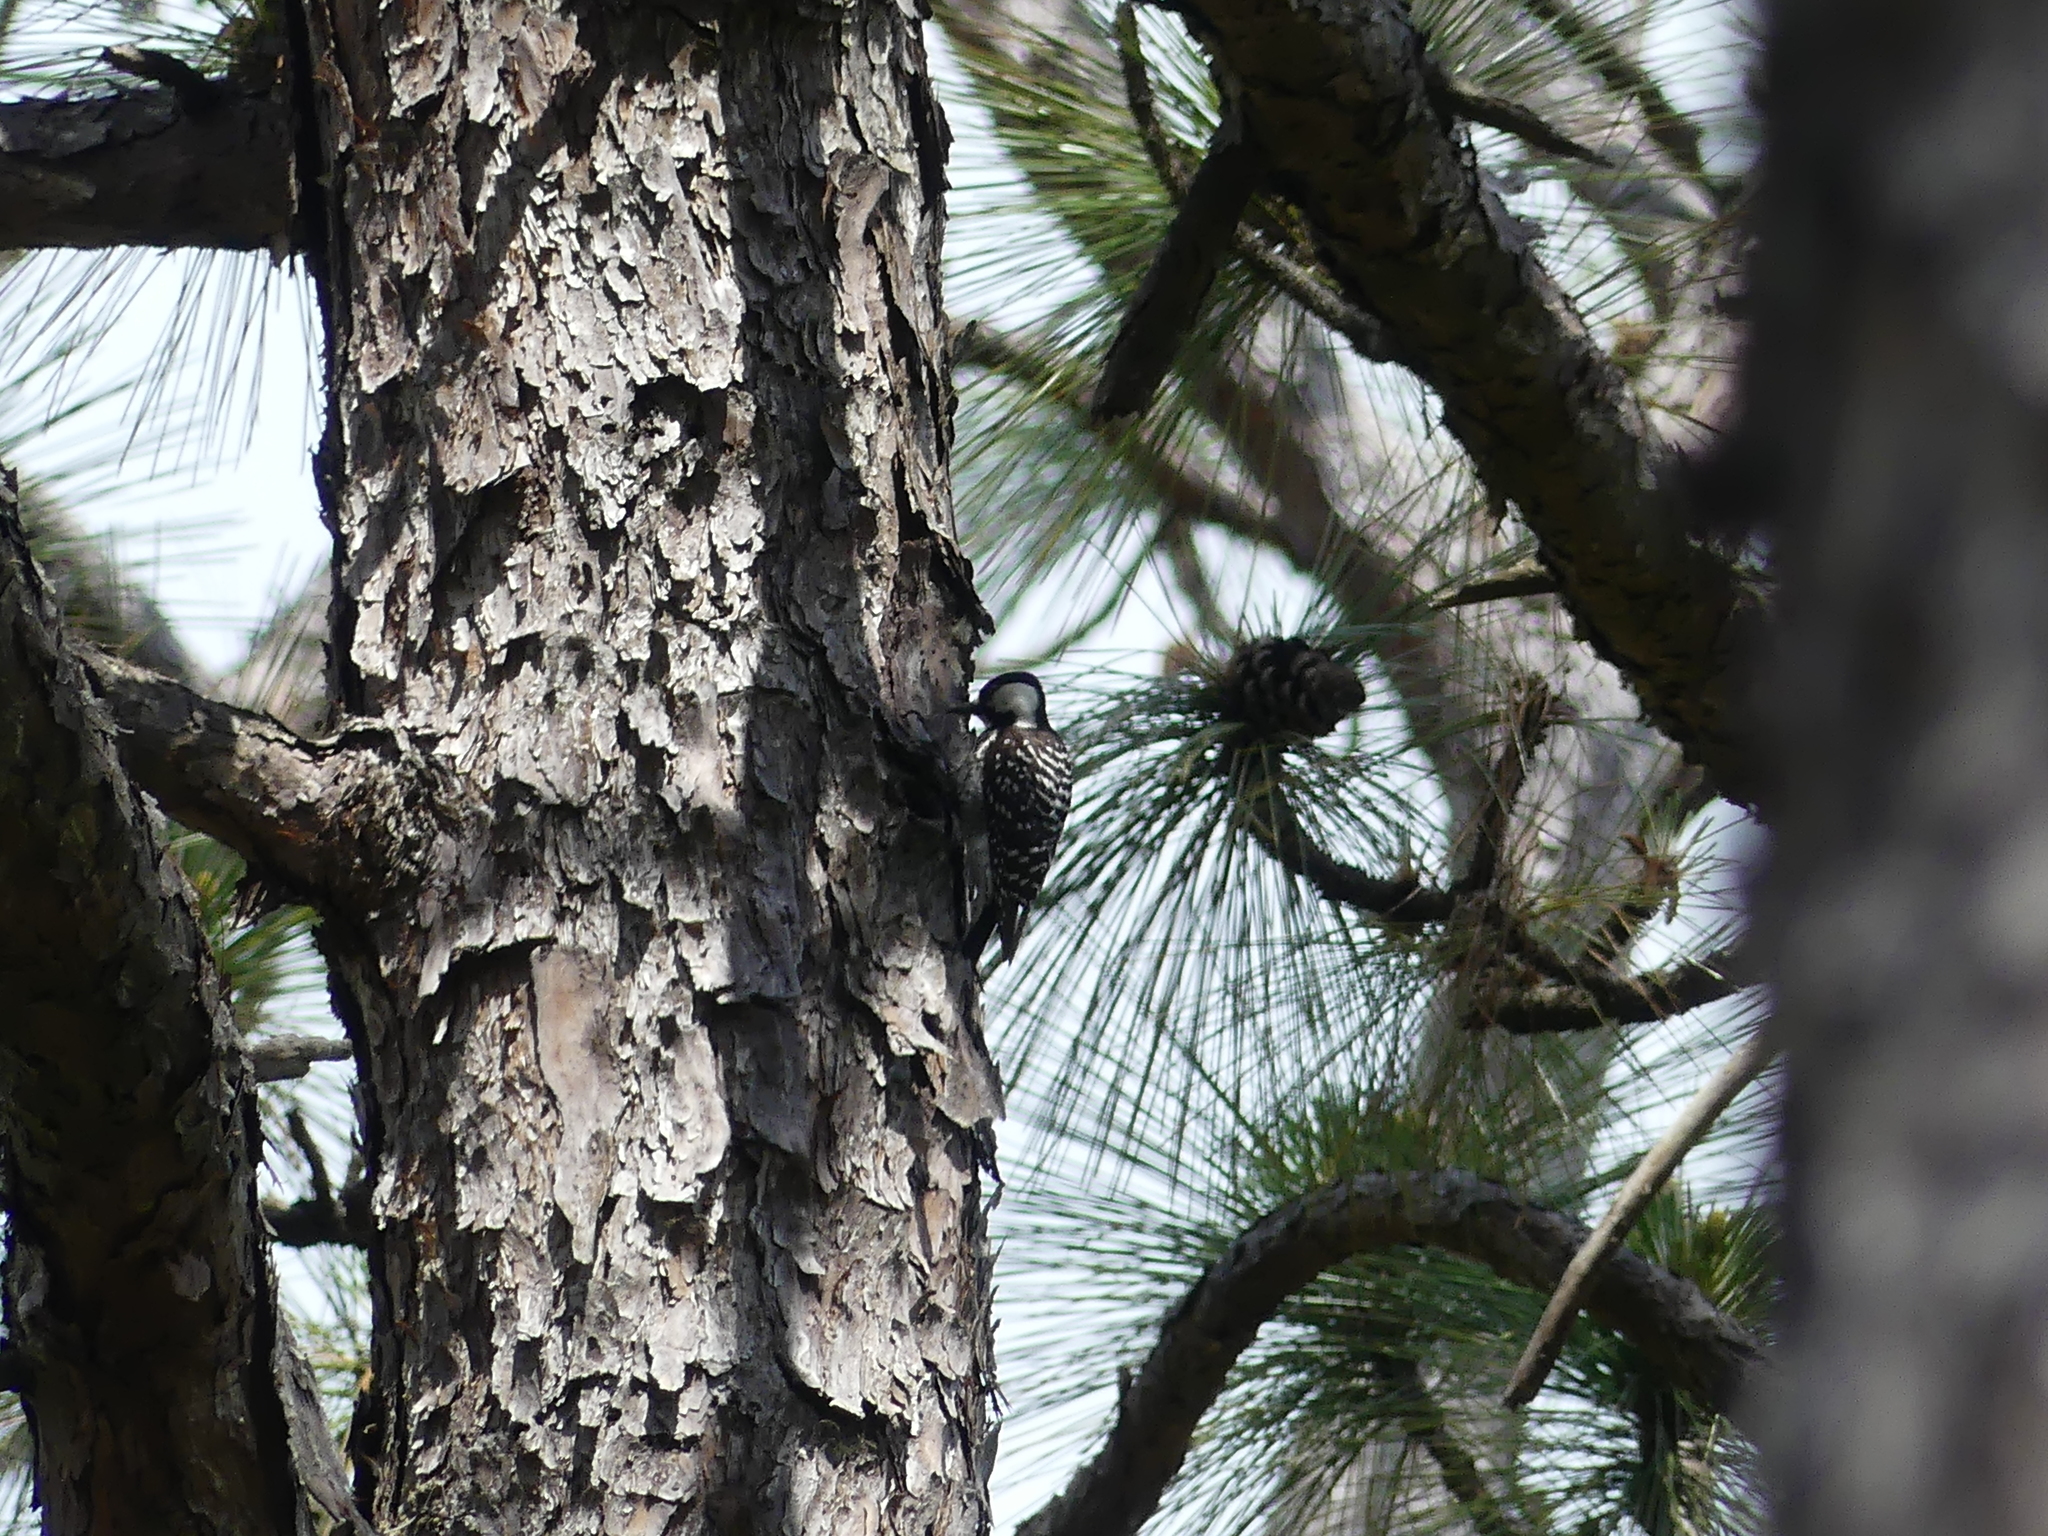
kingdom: Animalia
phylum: Chordata
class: Aves
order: Piciformes
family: Picidae
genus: Leuconotopicus
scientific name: Leuconotopicus borealis
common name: Red-cockaded woodpecker
